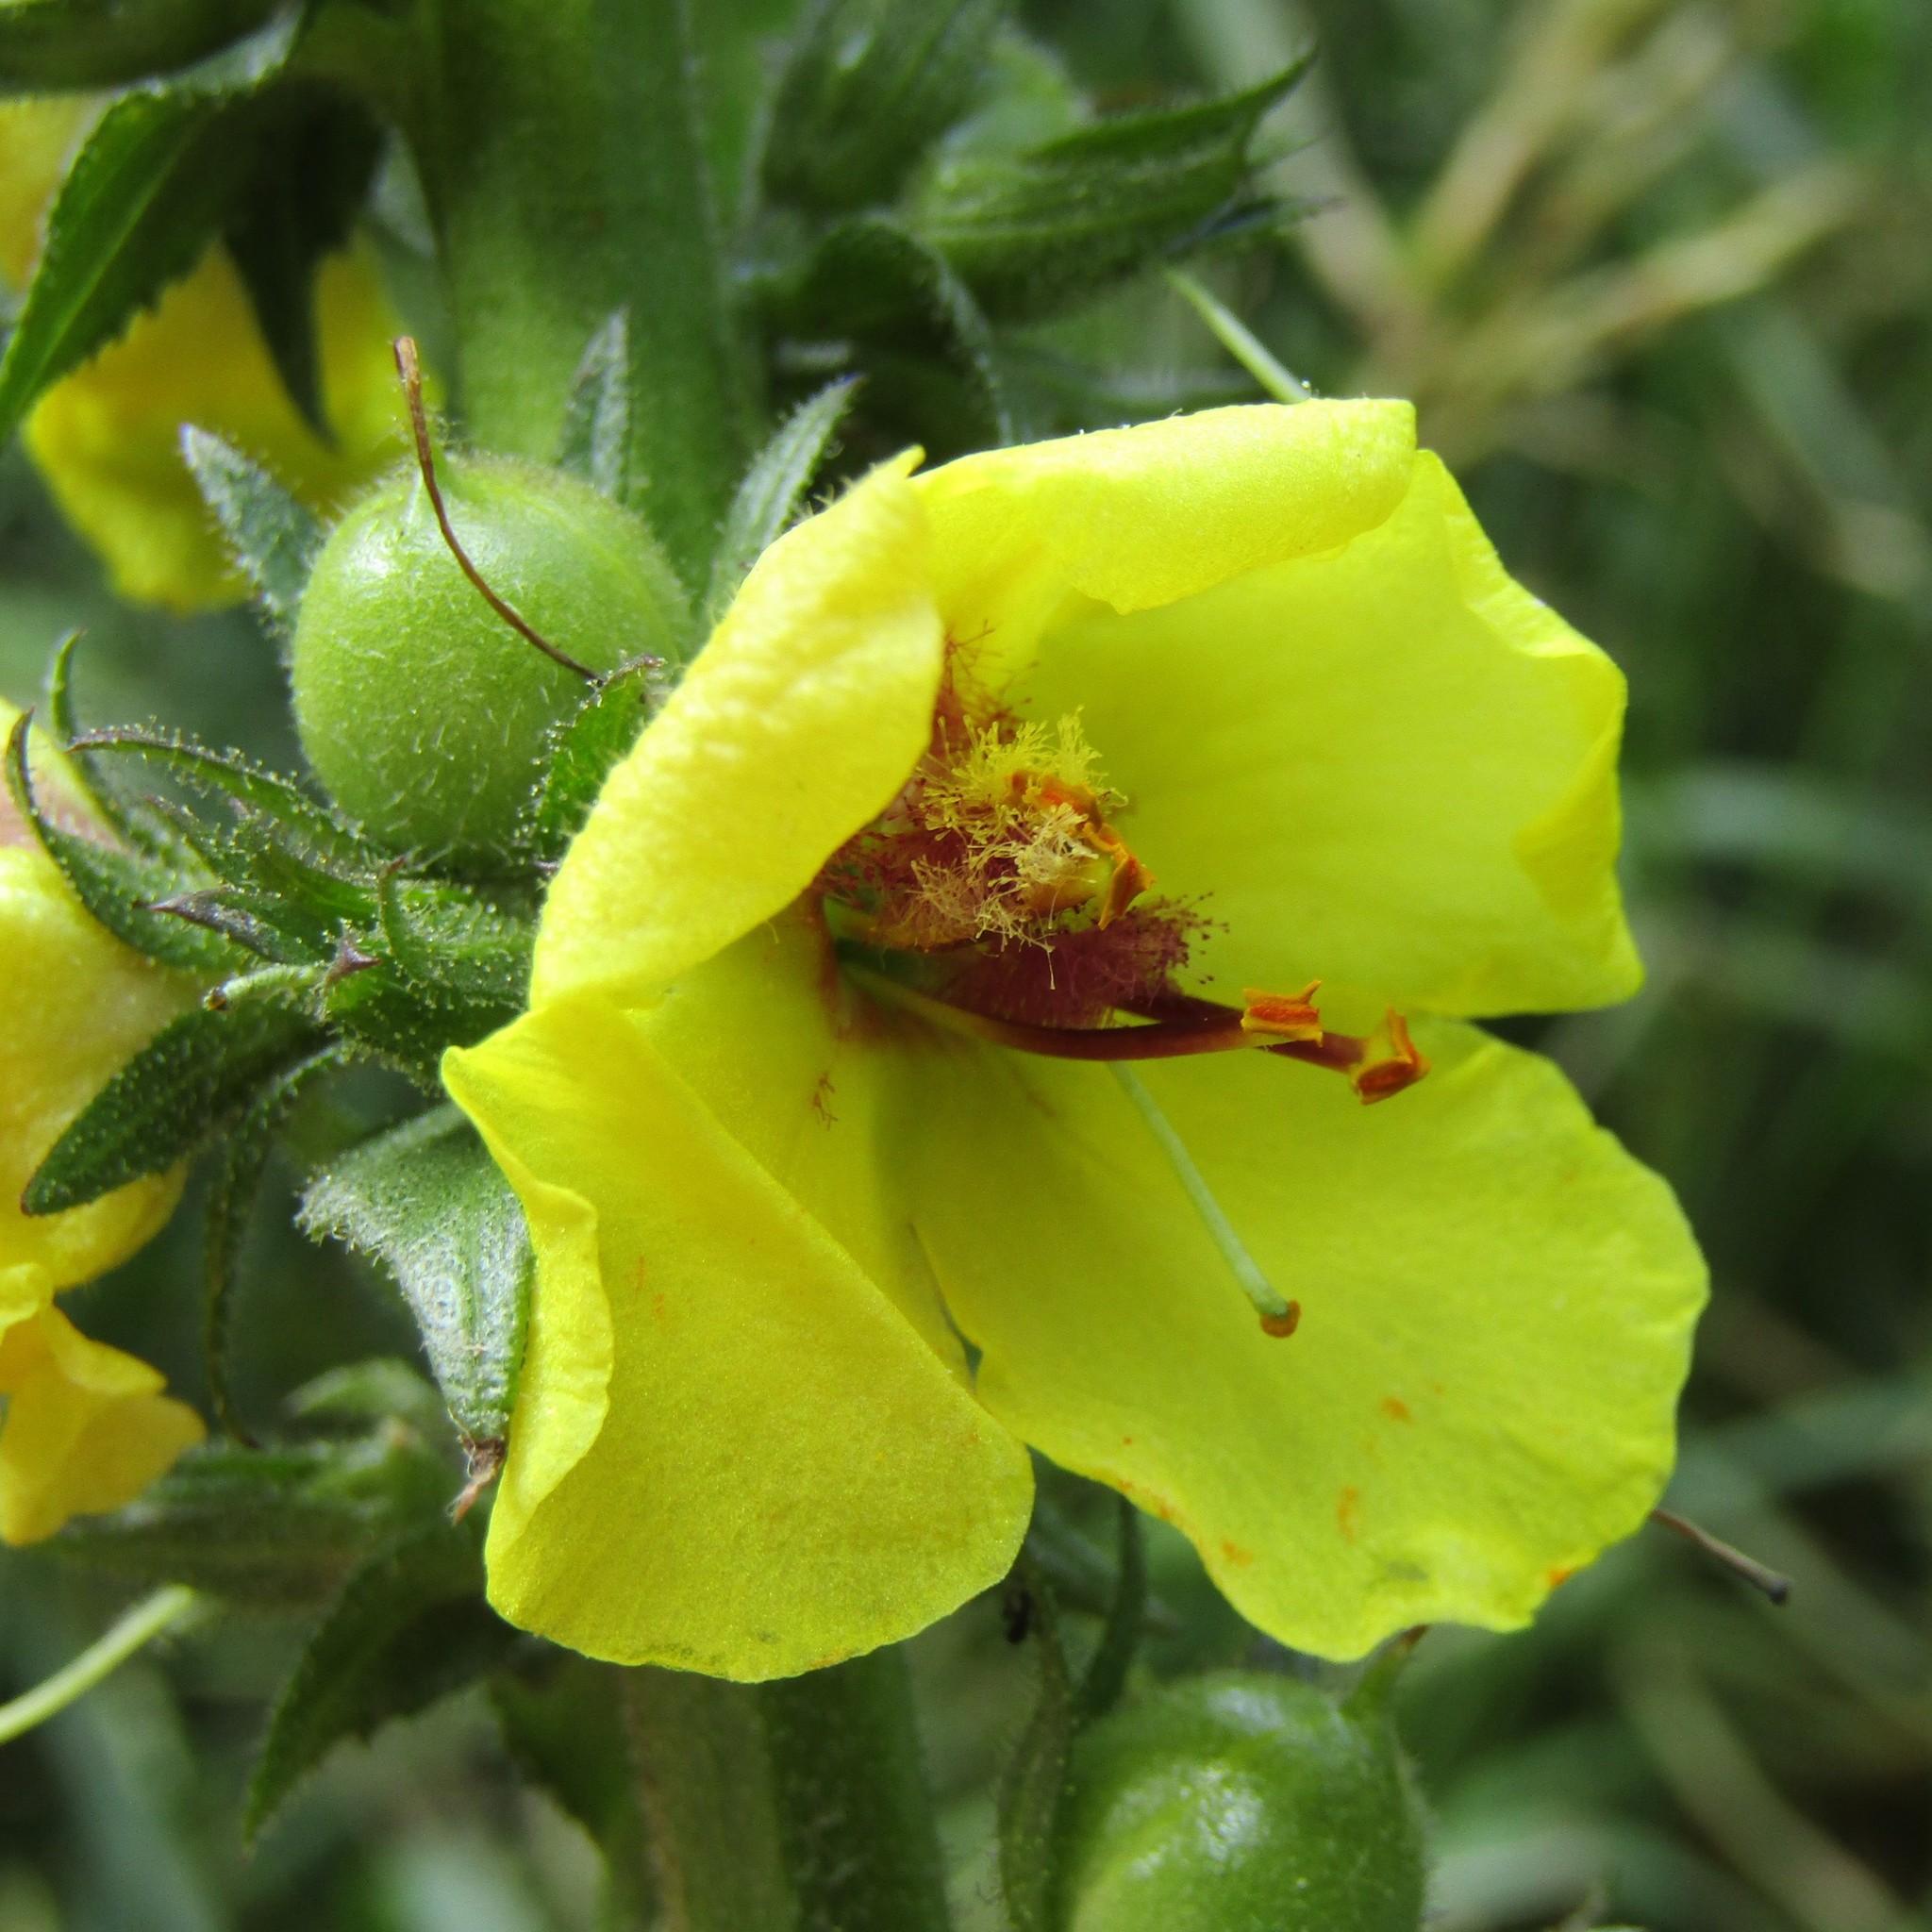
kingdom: Plantae
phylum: Tracheophyta
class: Magnoliopsida
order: Lamiales
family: Scrophulariaceae
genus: Verbascum
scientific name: Verbascum virgatum
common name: Twiggy mullein
